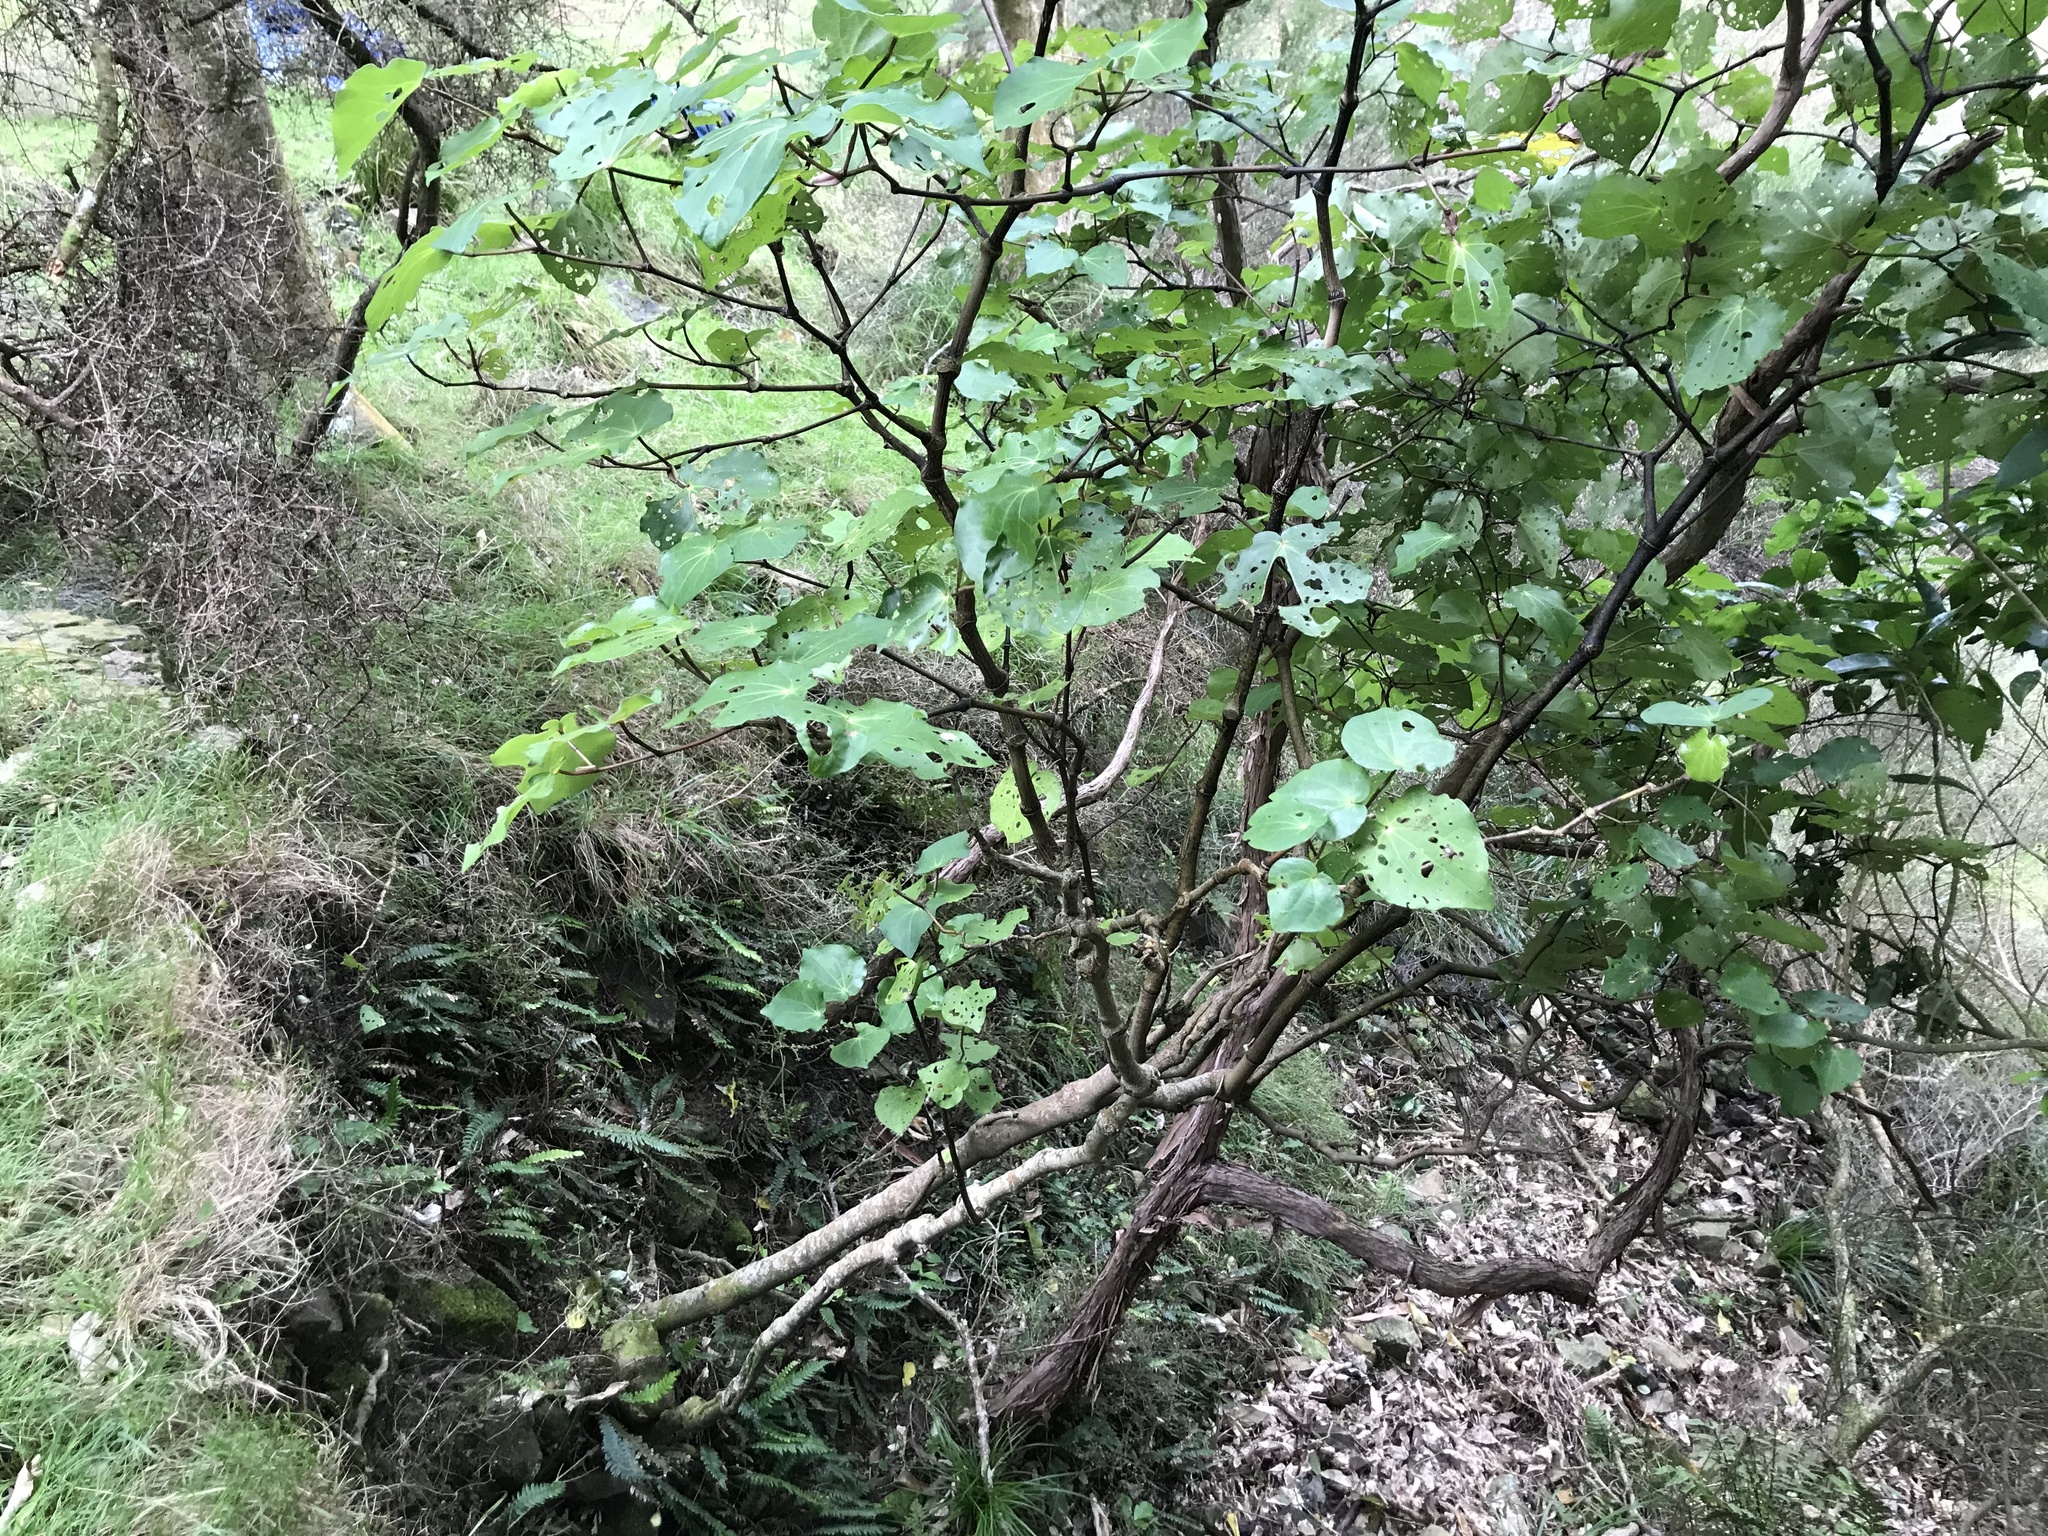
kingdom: Plantae
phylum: Tracheophyta
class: Magnoliopsida
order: Piperales
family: Piperaceae
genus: Macropiper
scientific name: Macropiper excelsum
